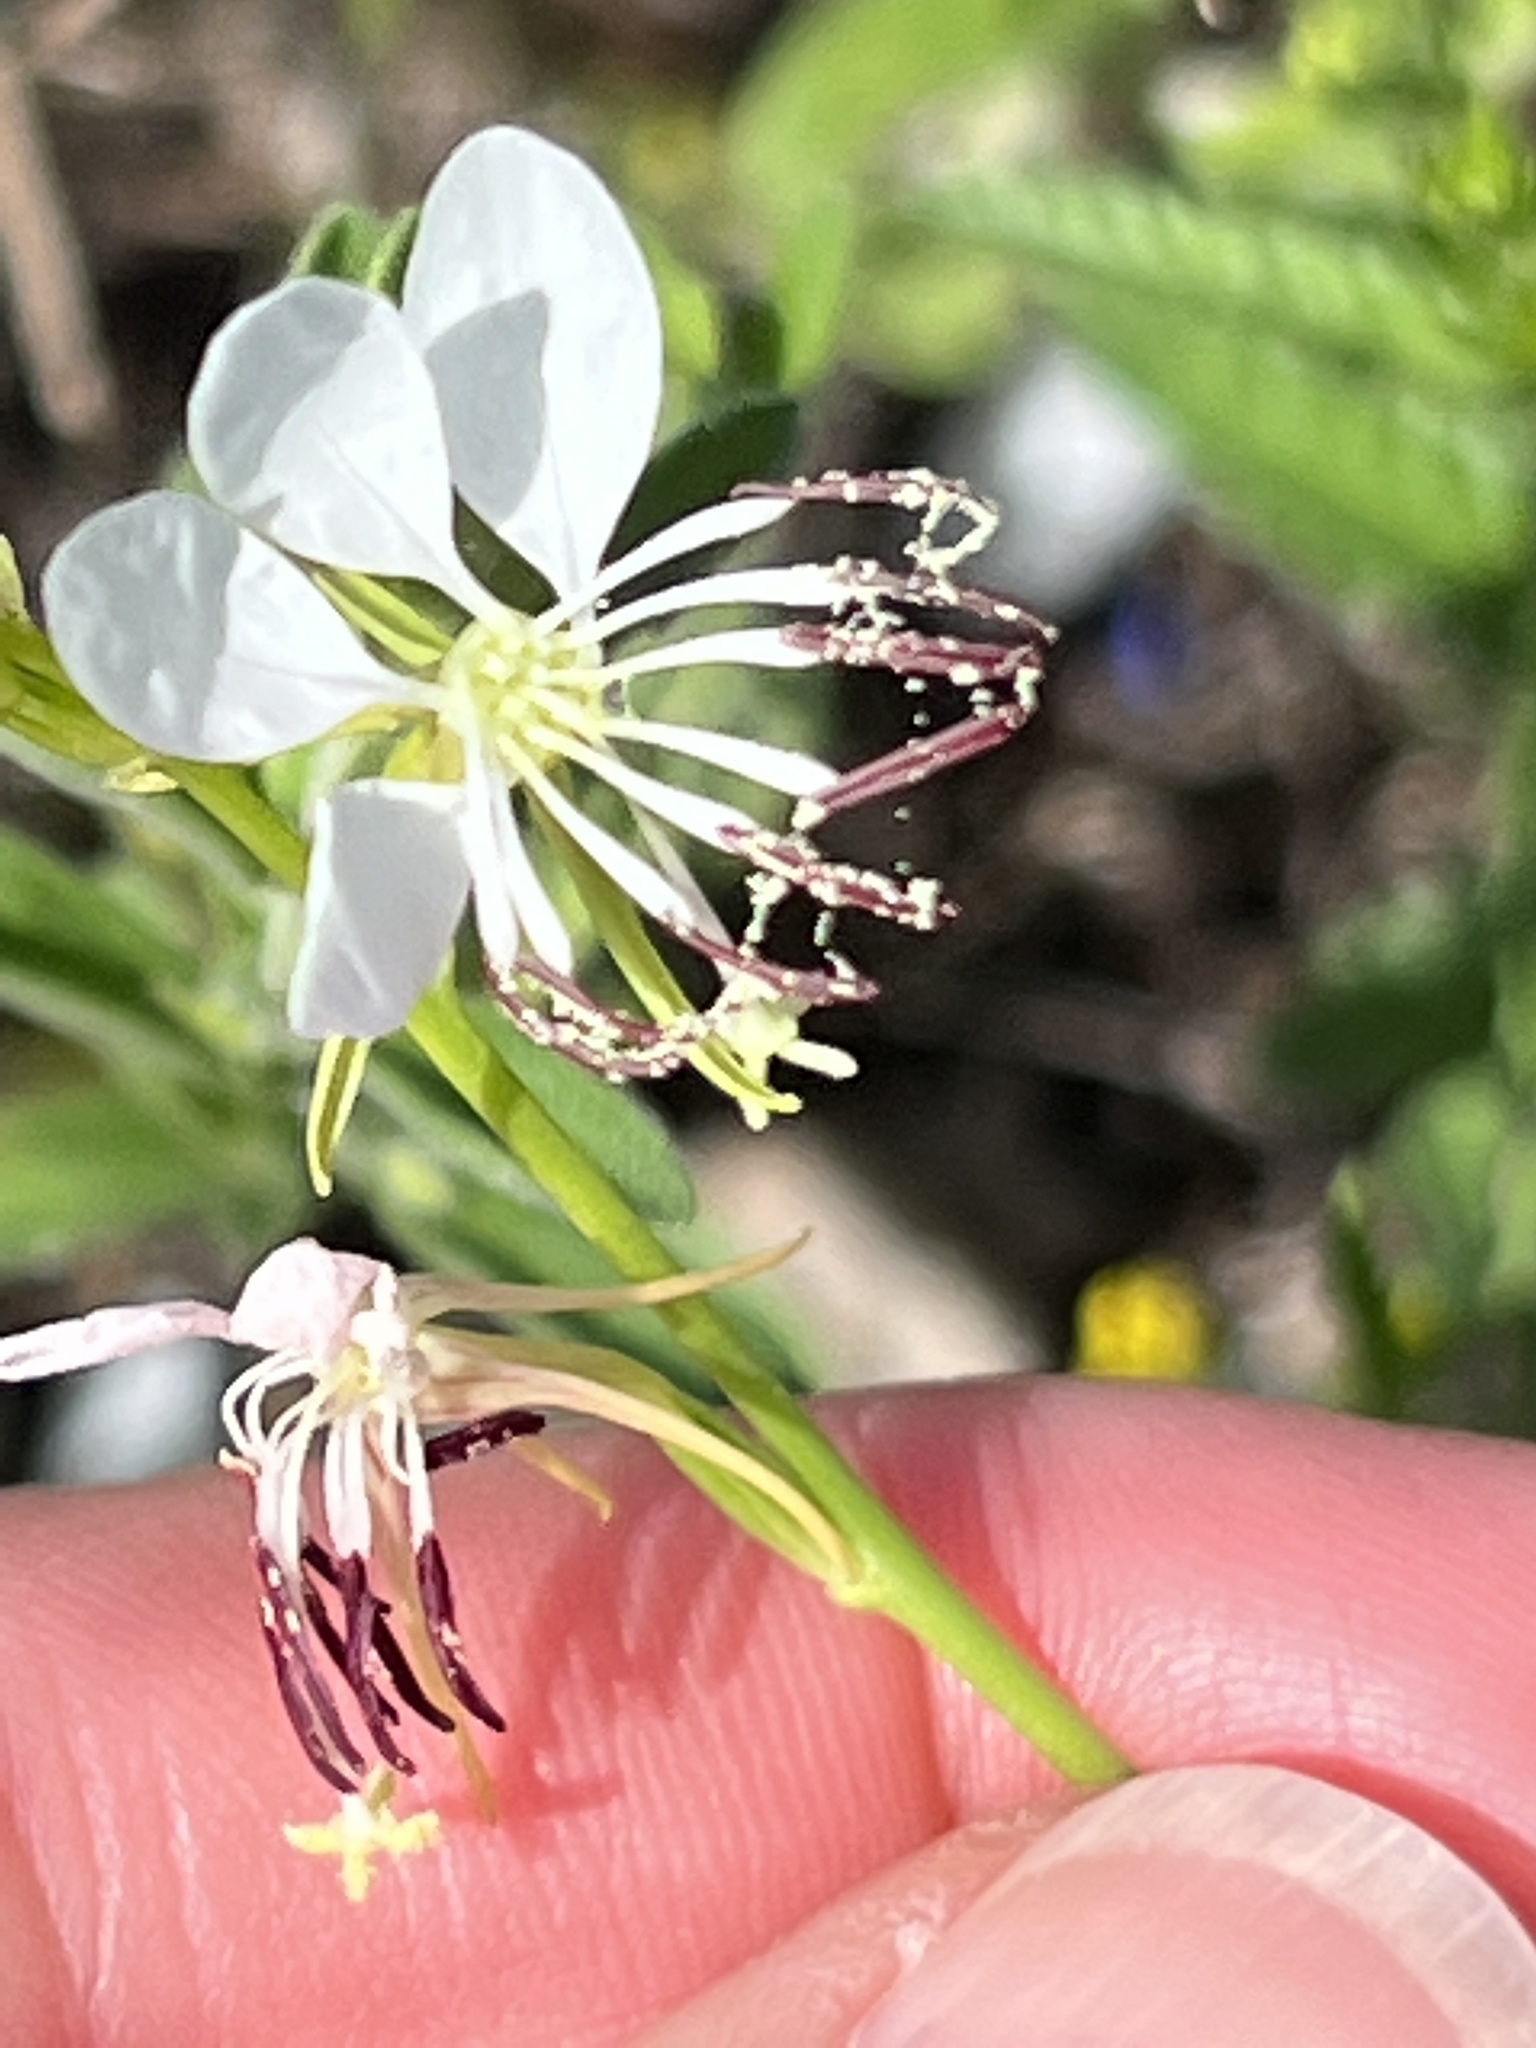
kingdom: Plantae
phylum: Tracheophyta
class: Magnoliopsida
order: Myrtales
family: Onagraceae
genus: Oenothera
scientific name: Oenothera suffulta
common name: Kisses
